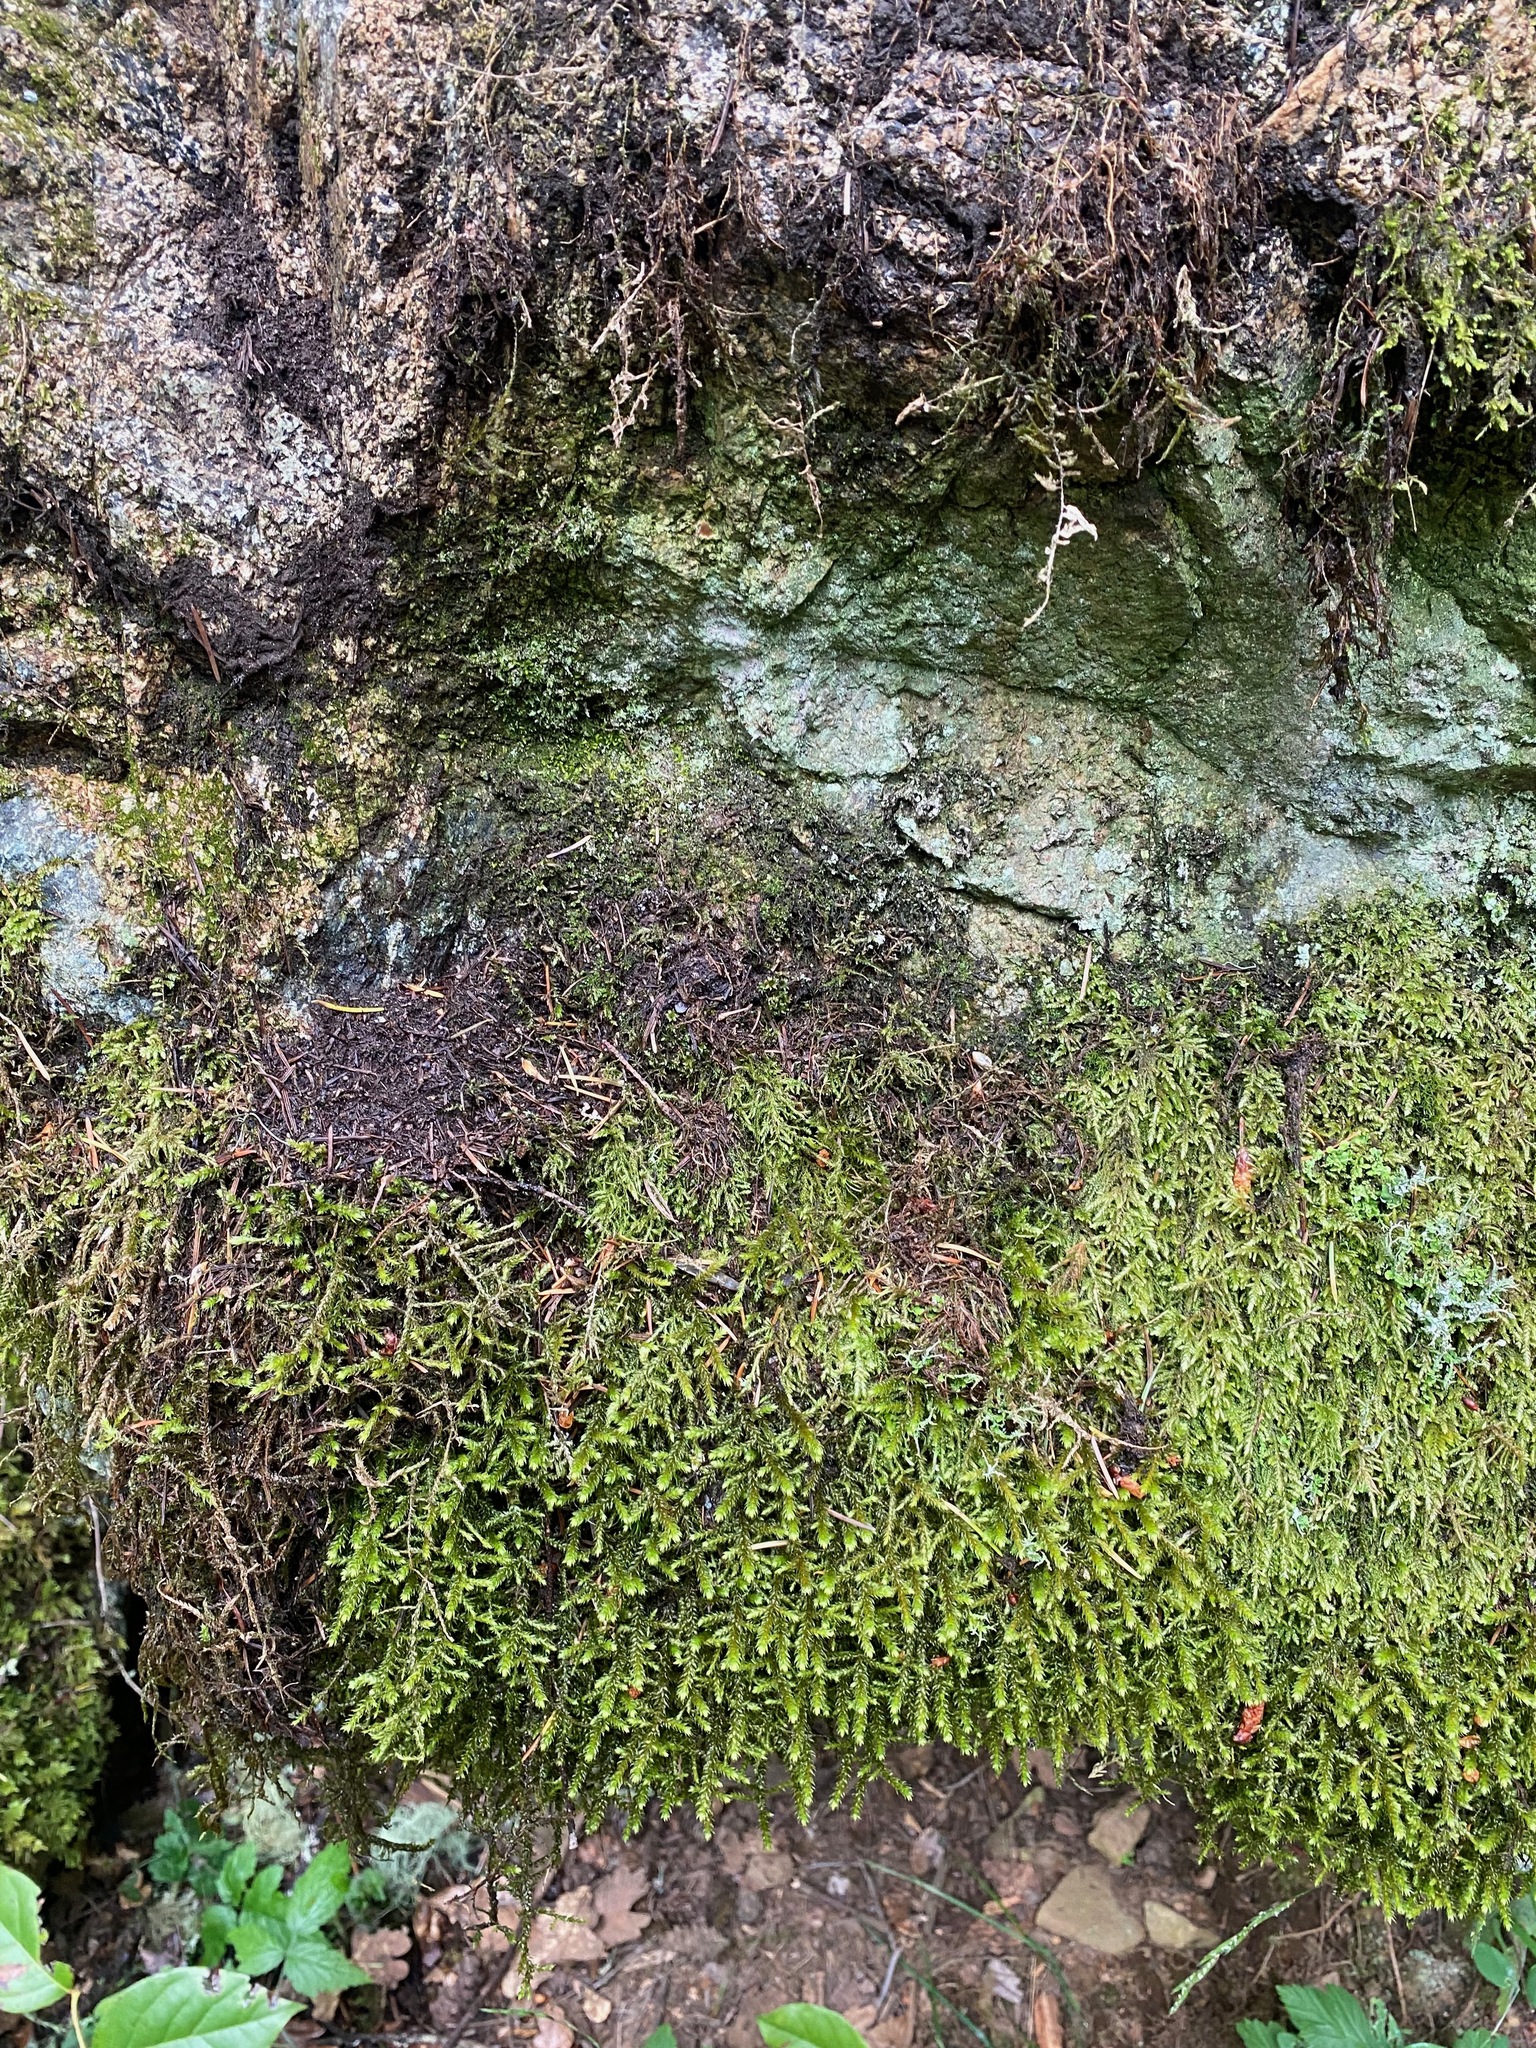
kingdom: Plantae
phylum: Bryophyta
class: Bryopsida
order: Hypnales
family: Antitrichiaceae
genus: Antitrichia
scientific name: Antitrichia curtipendula
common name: Pendulous wing-moss
